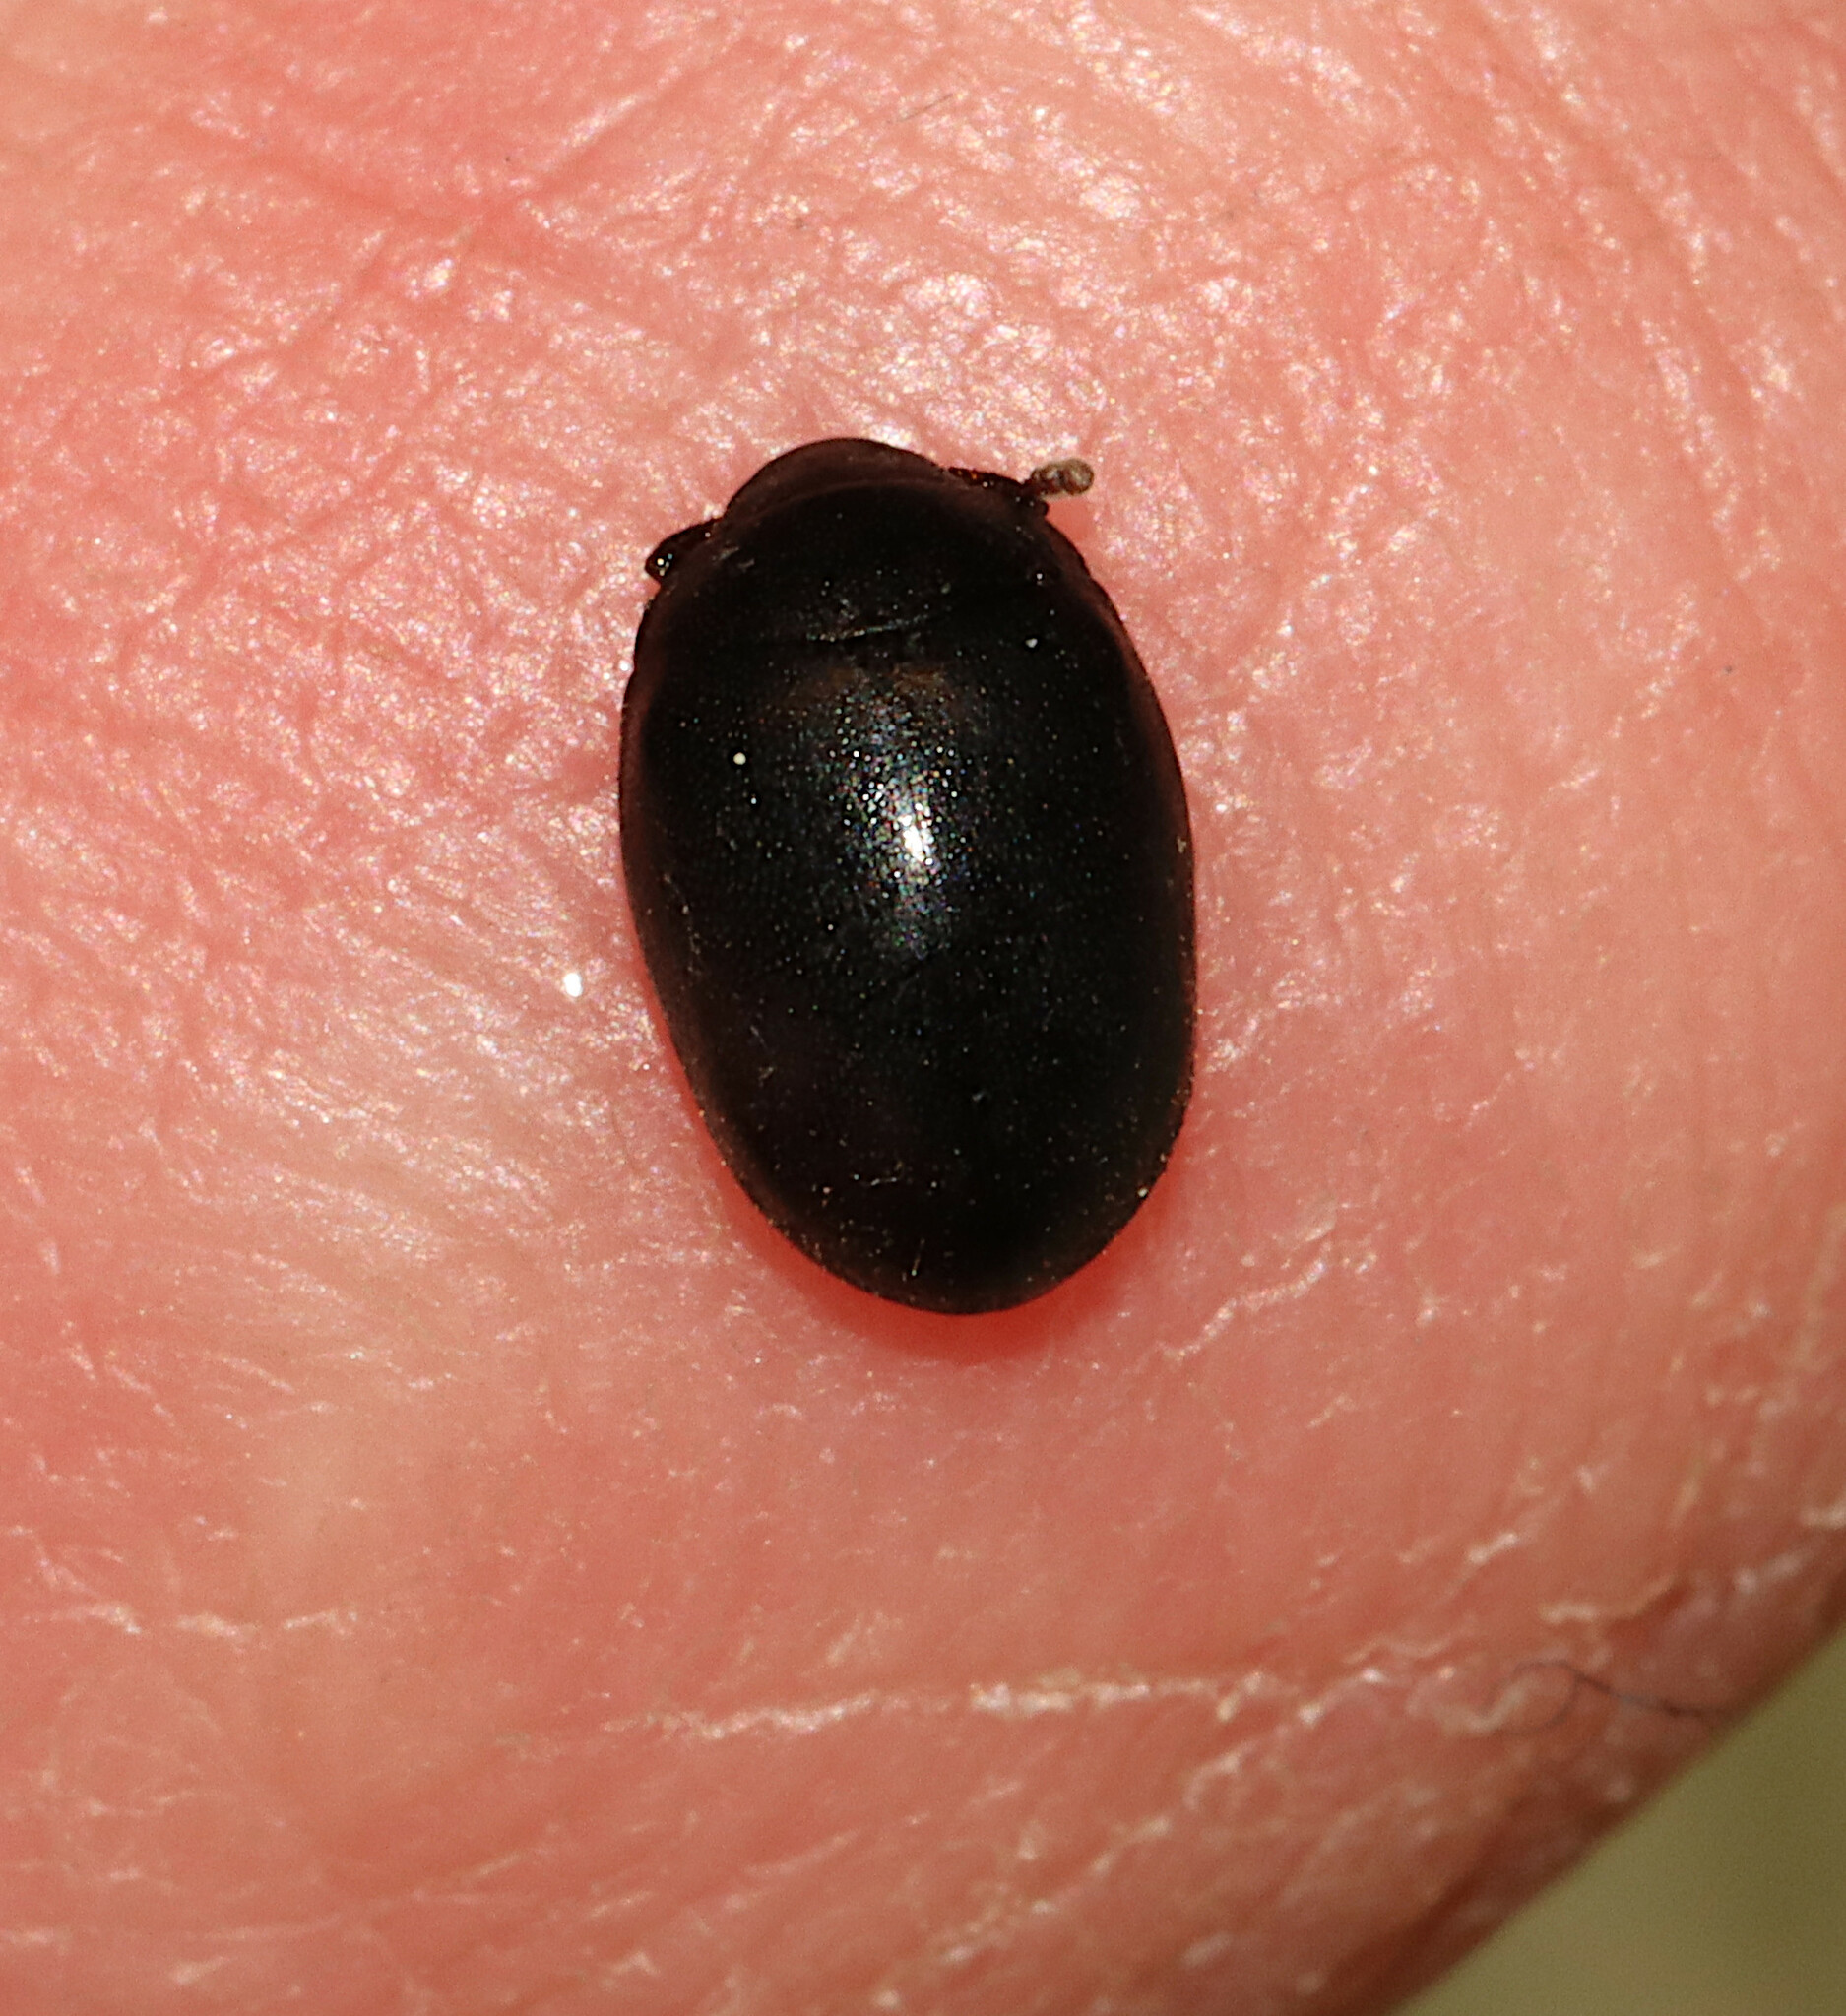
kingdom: Animalia
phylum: Arthropoda
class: Insecta
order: Coleoptera
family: Nosodendridae
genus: Nosodendron
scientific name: Nosodendron unicolor
